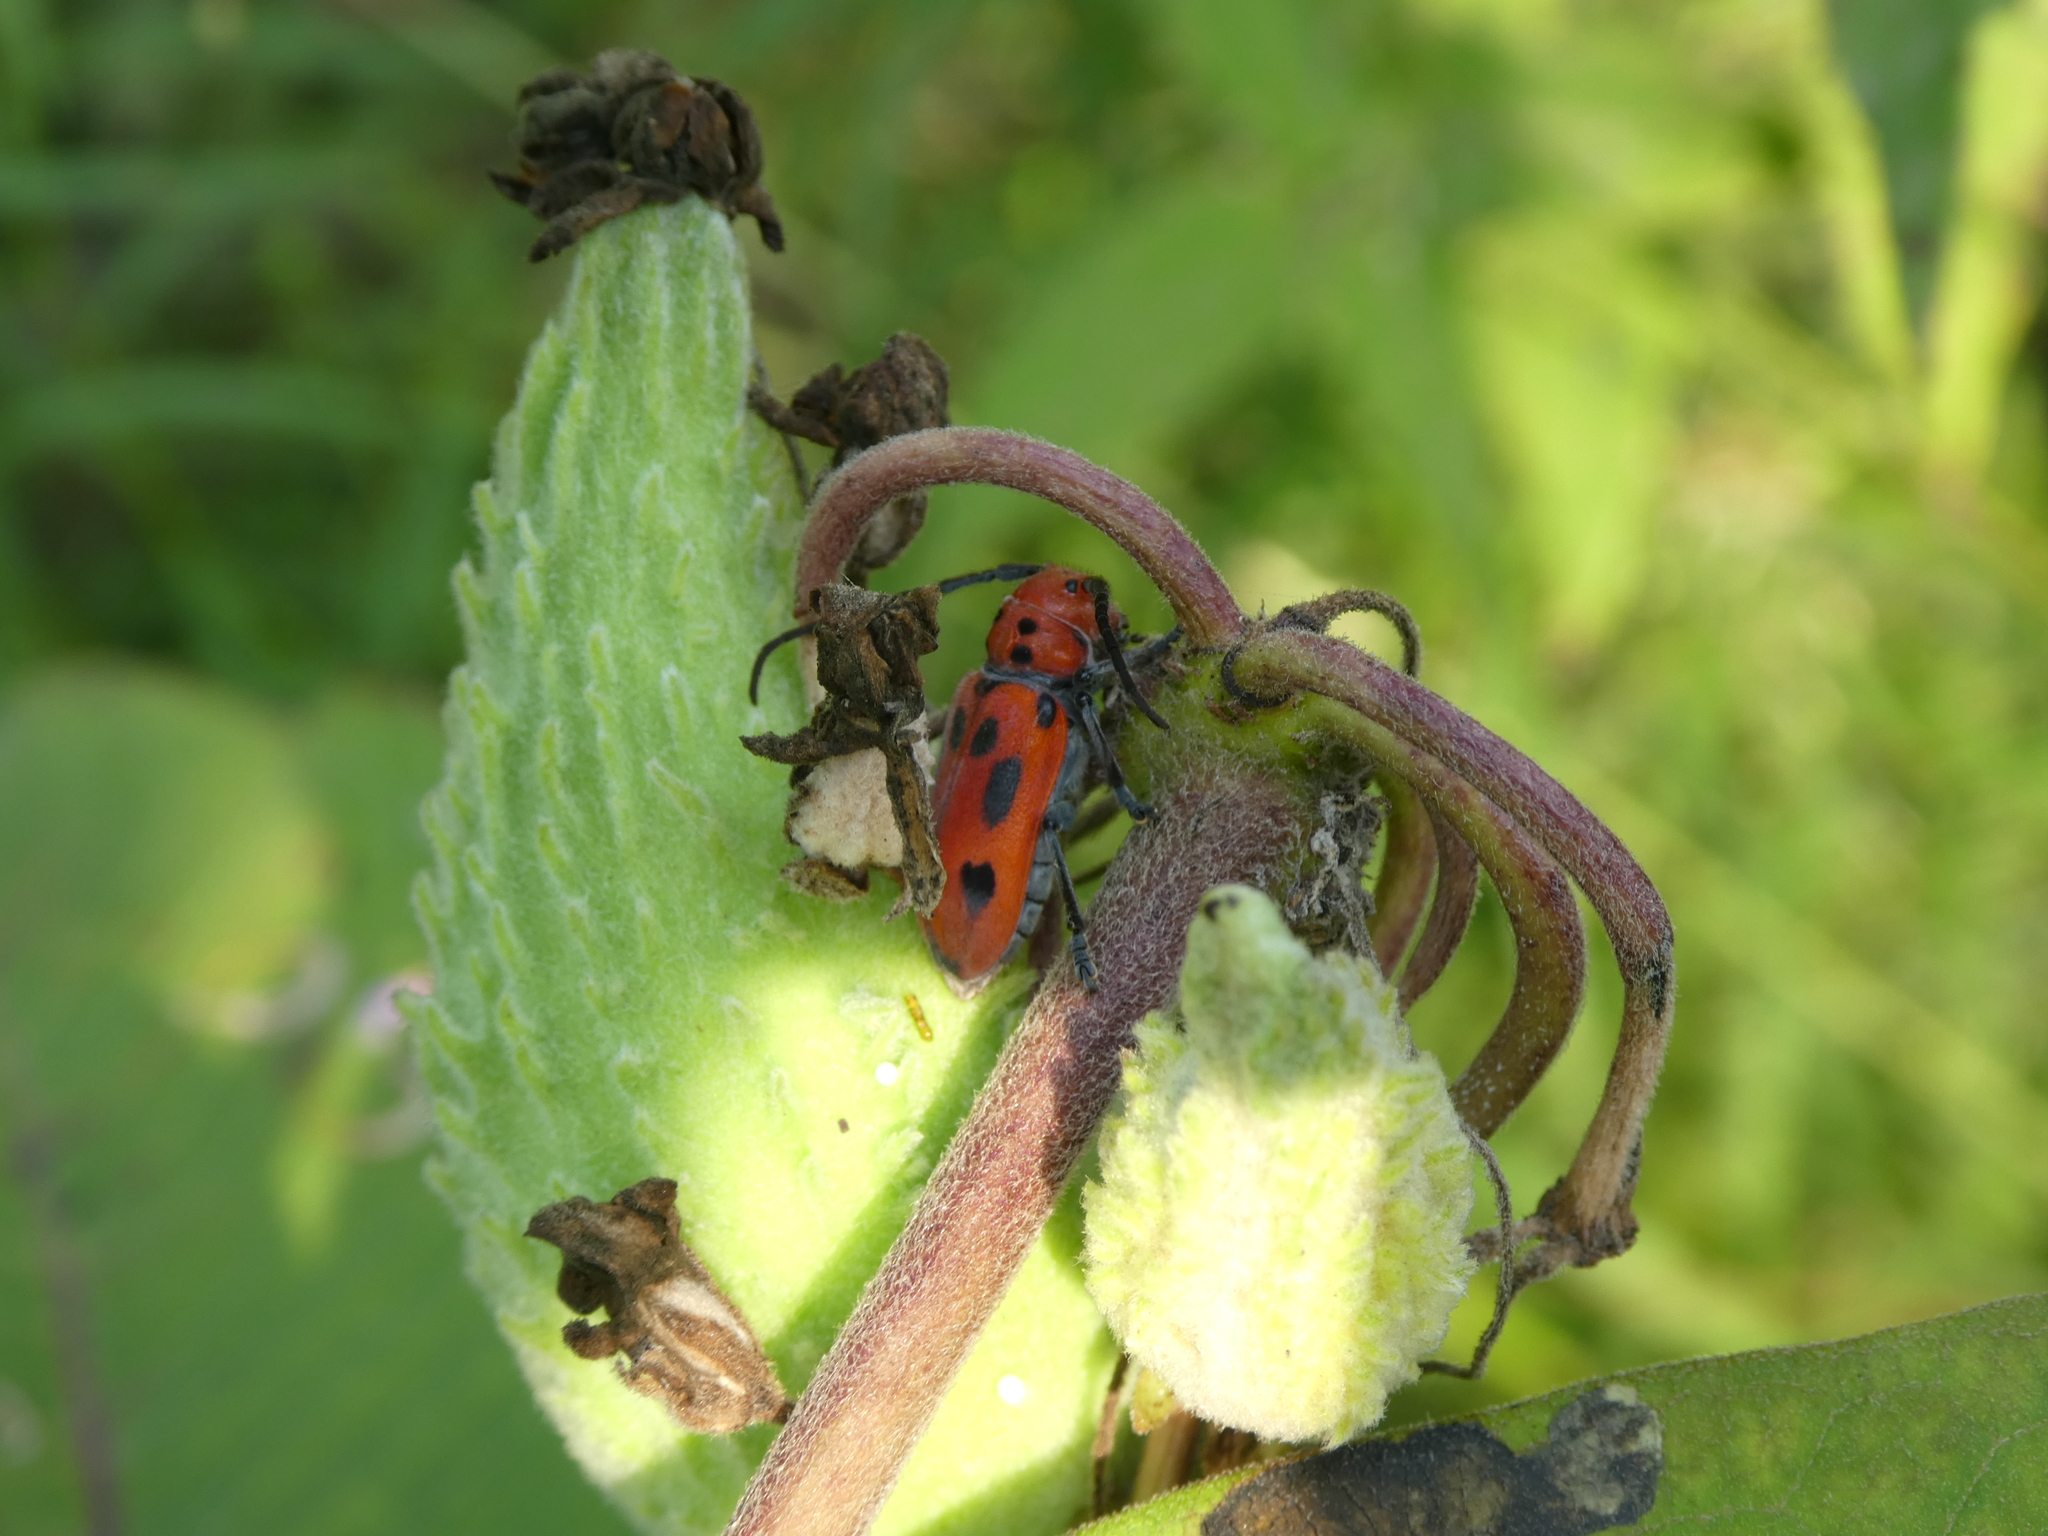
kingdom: Animalia
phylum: Arthropoda
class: Insecta
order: Coleoptera
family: Cerambycidae
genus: Tetraopes
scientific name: Tetraopes tetrophthalmus
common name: Red milkweed beetle
